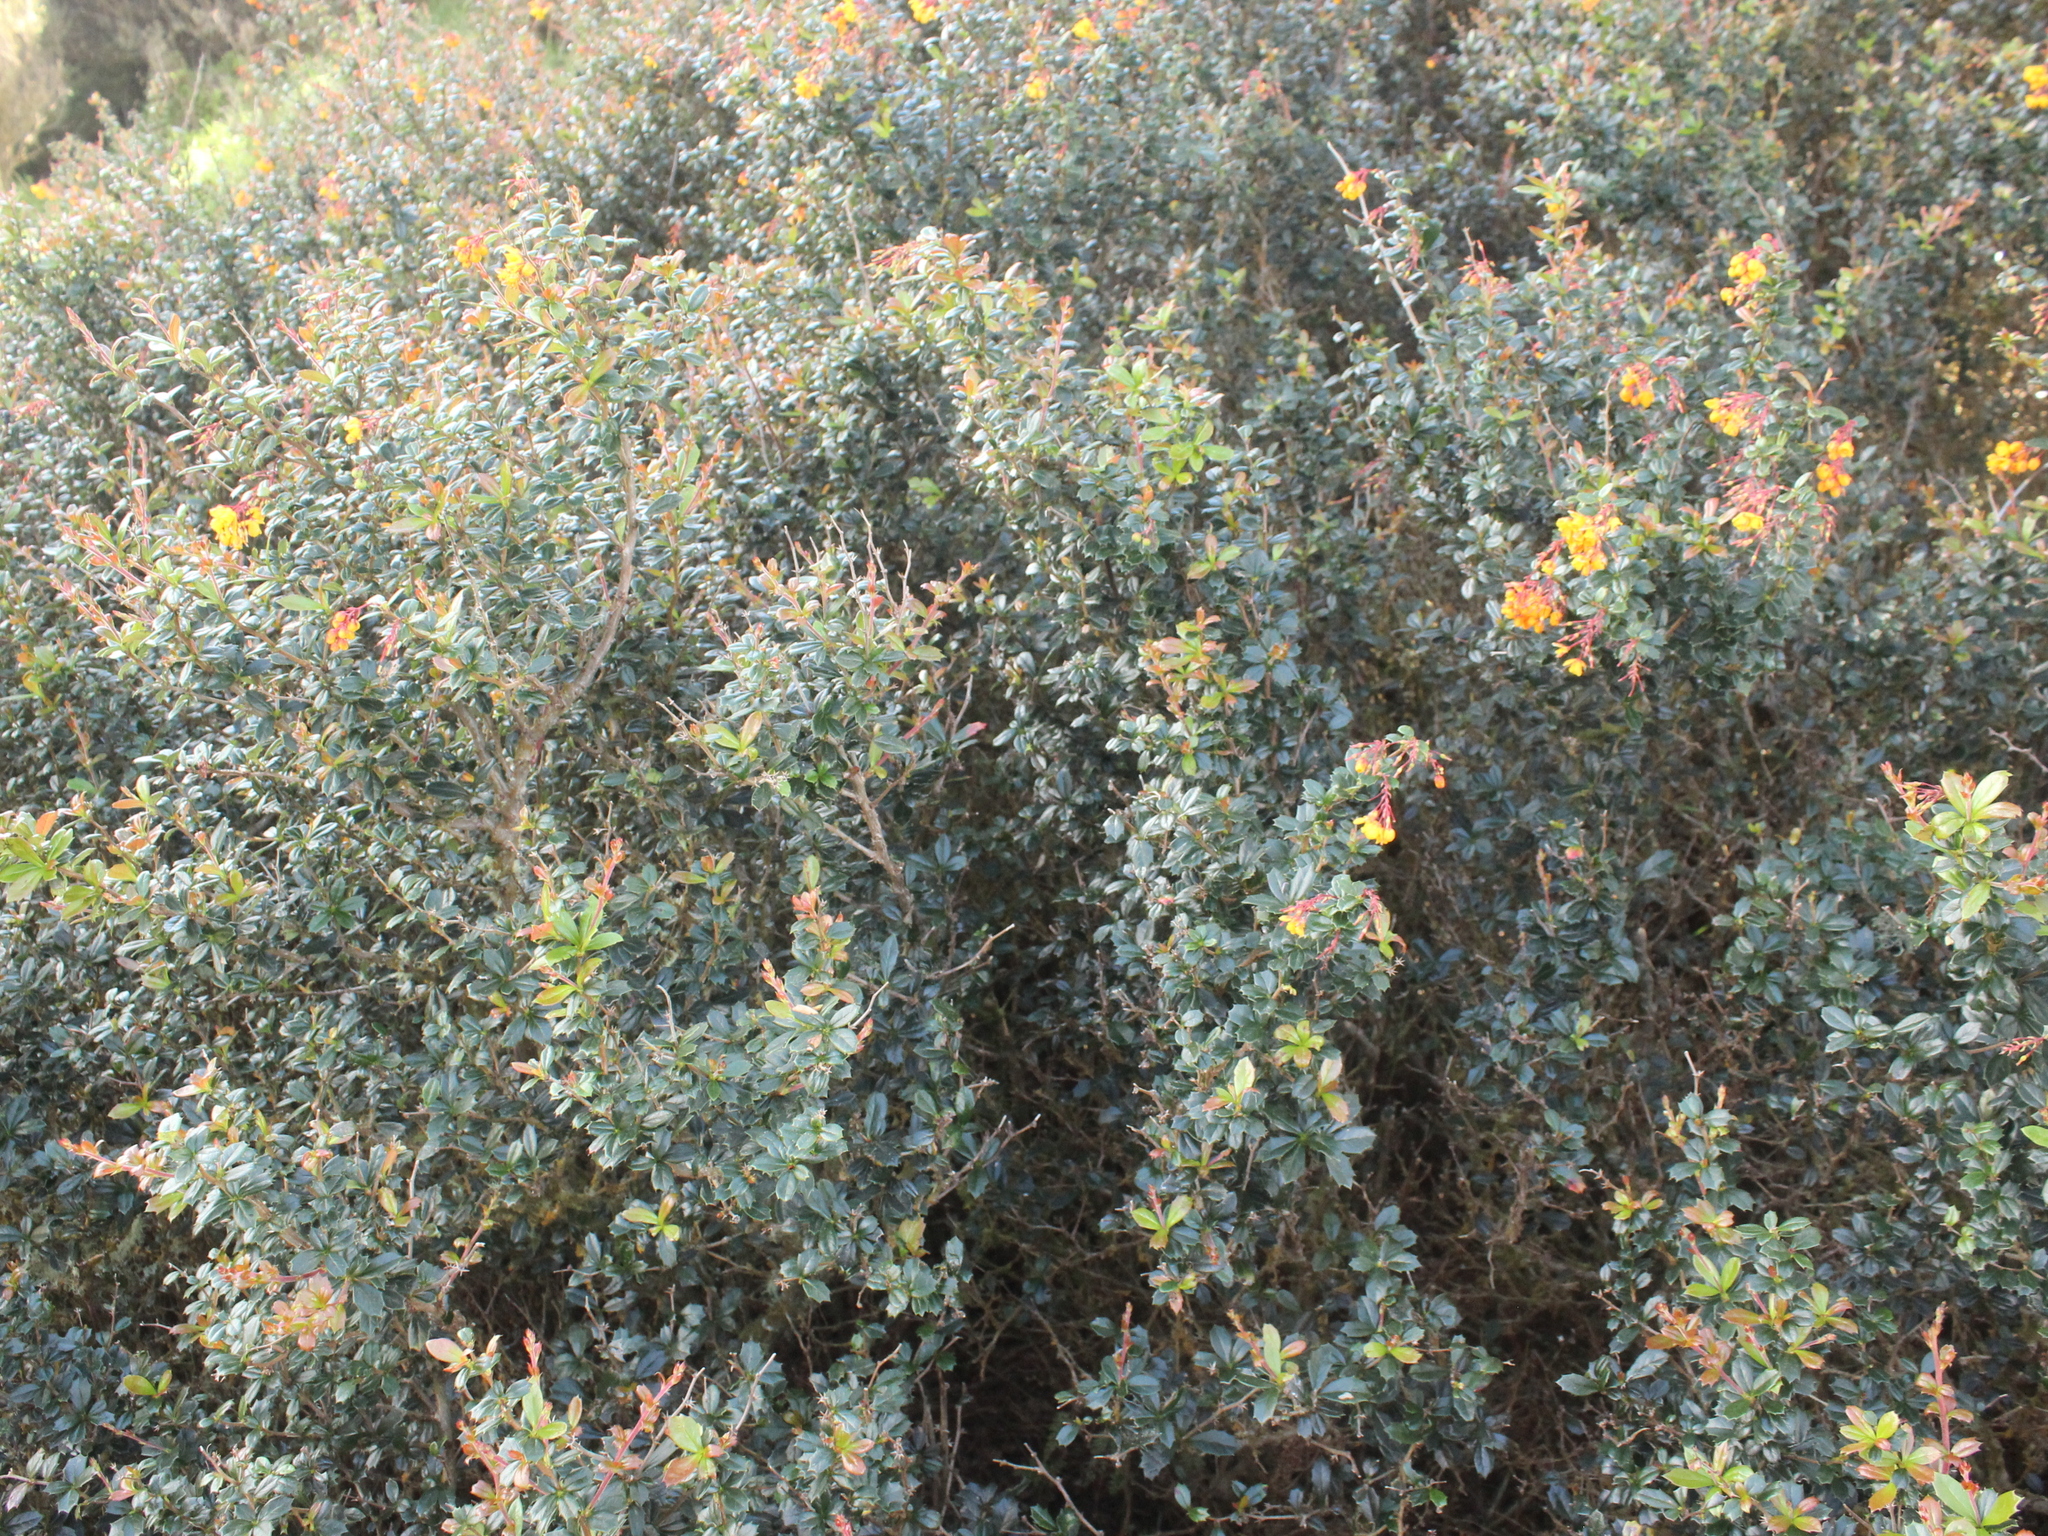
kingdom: Plantae
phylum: Tracheophyta
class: Magnoliopsida
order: Ranunculales
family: Berberidaceae
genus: Berberis
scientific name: Berberis darwinii
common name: Darwin's barberry
